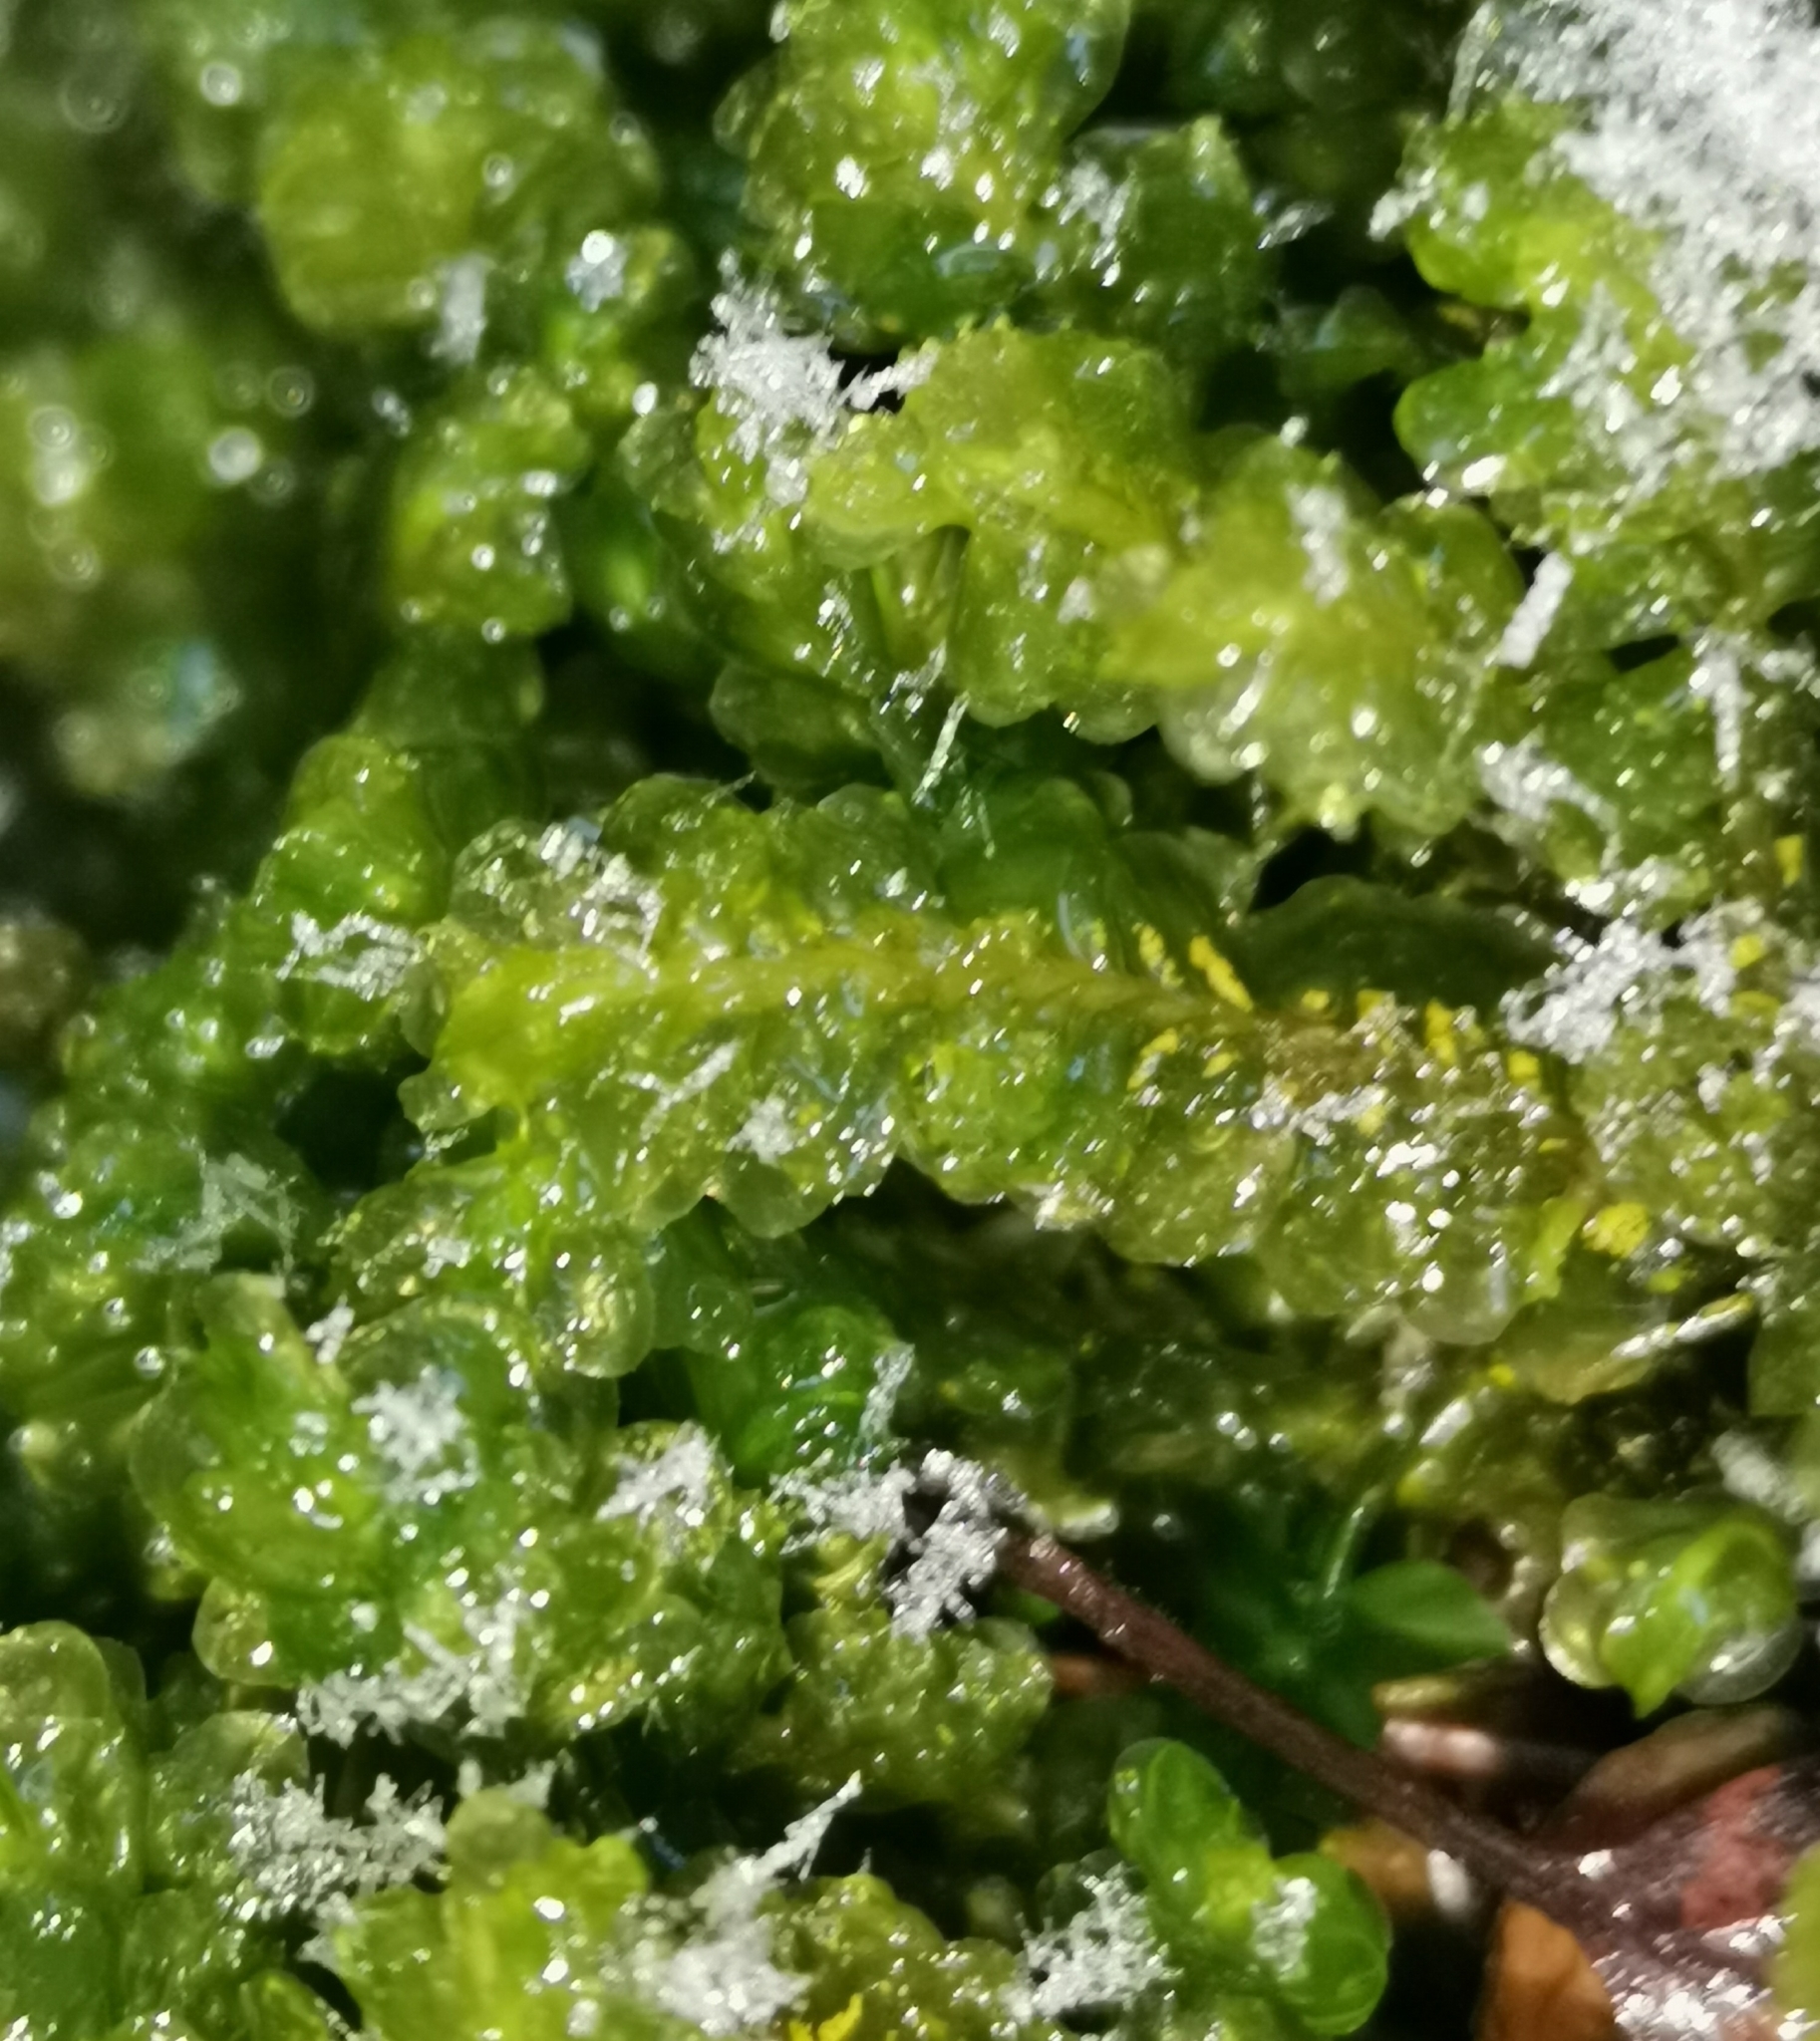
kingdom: Plantae
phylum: Marchantiophyta
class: Jungermanniopsida
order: Jungermanniales
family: Plagiochilaceae
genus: Plagiochila
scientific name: Plagiochila asplenioides
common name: Greater featherwort
